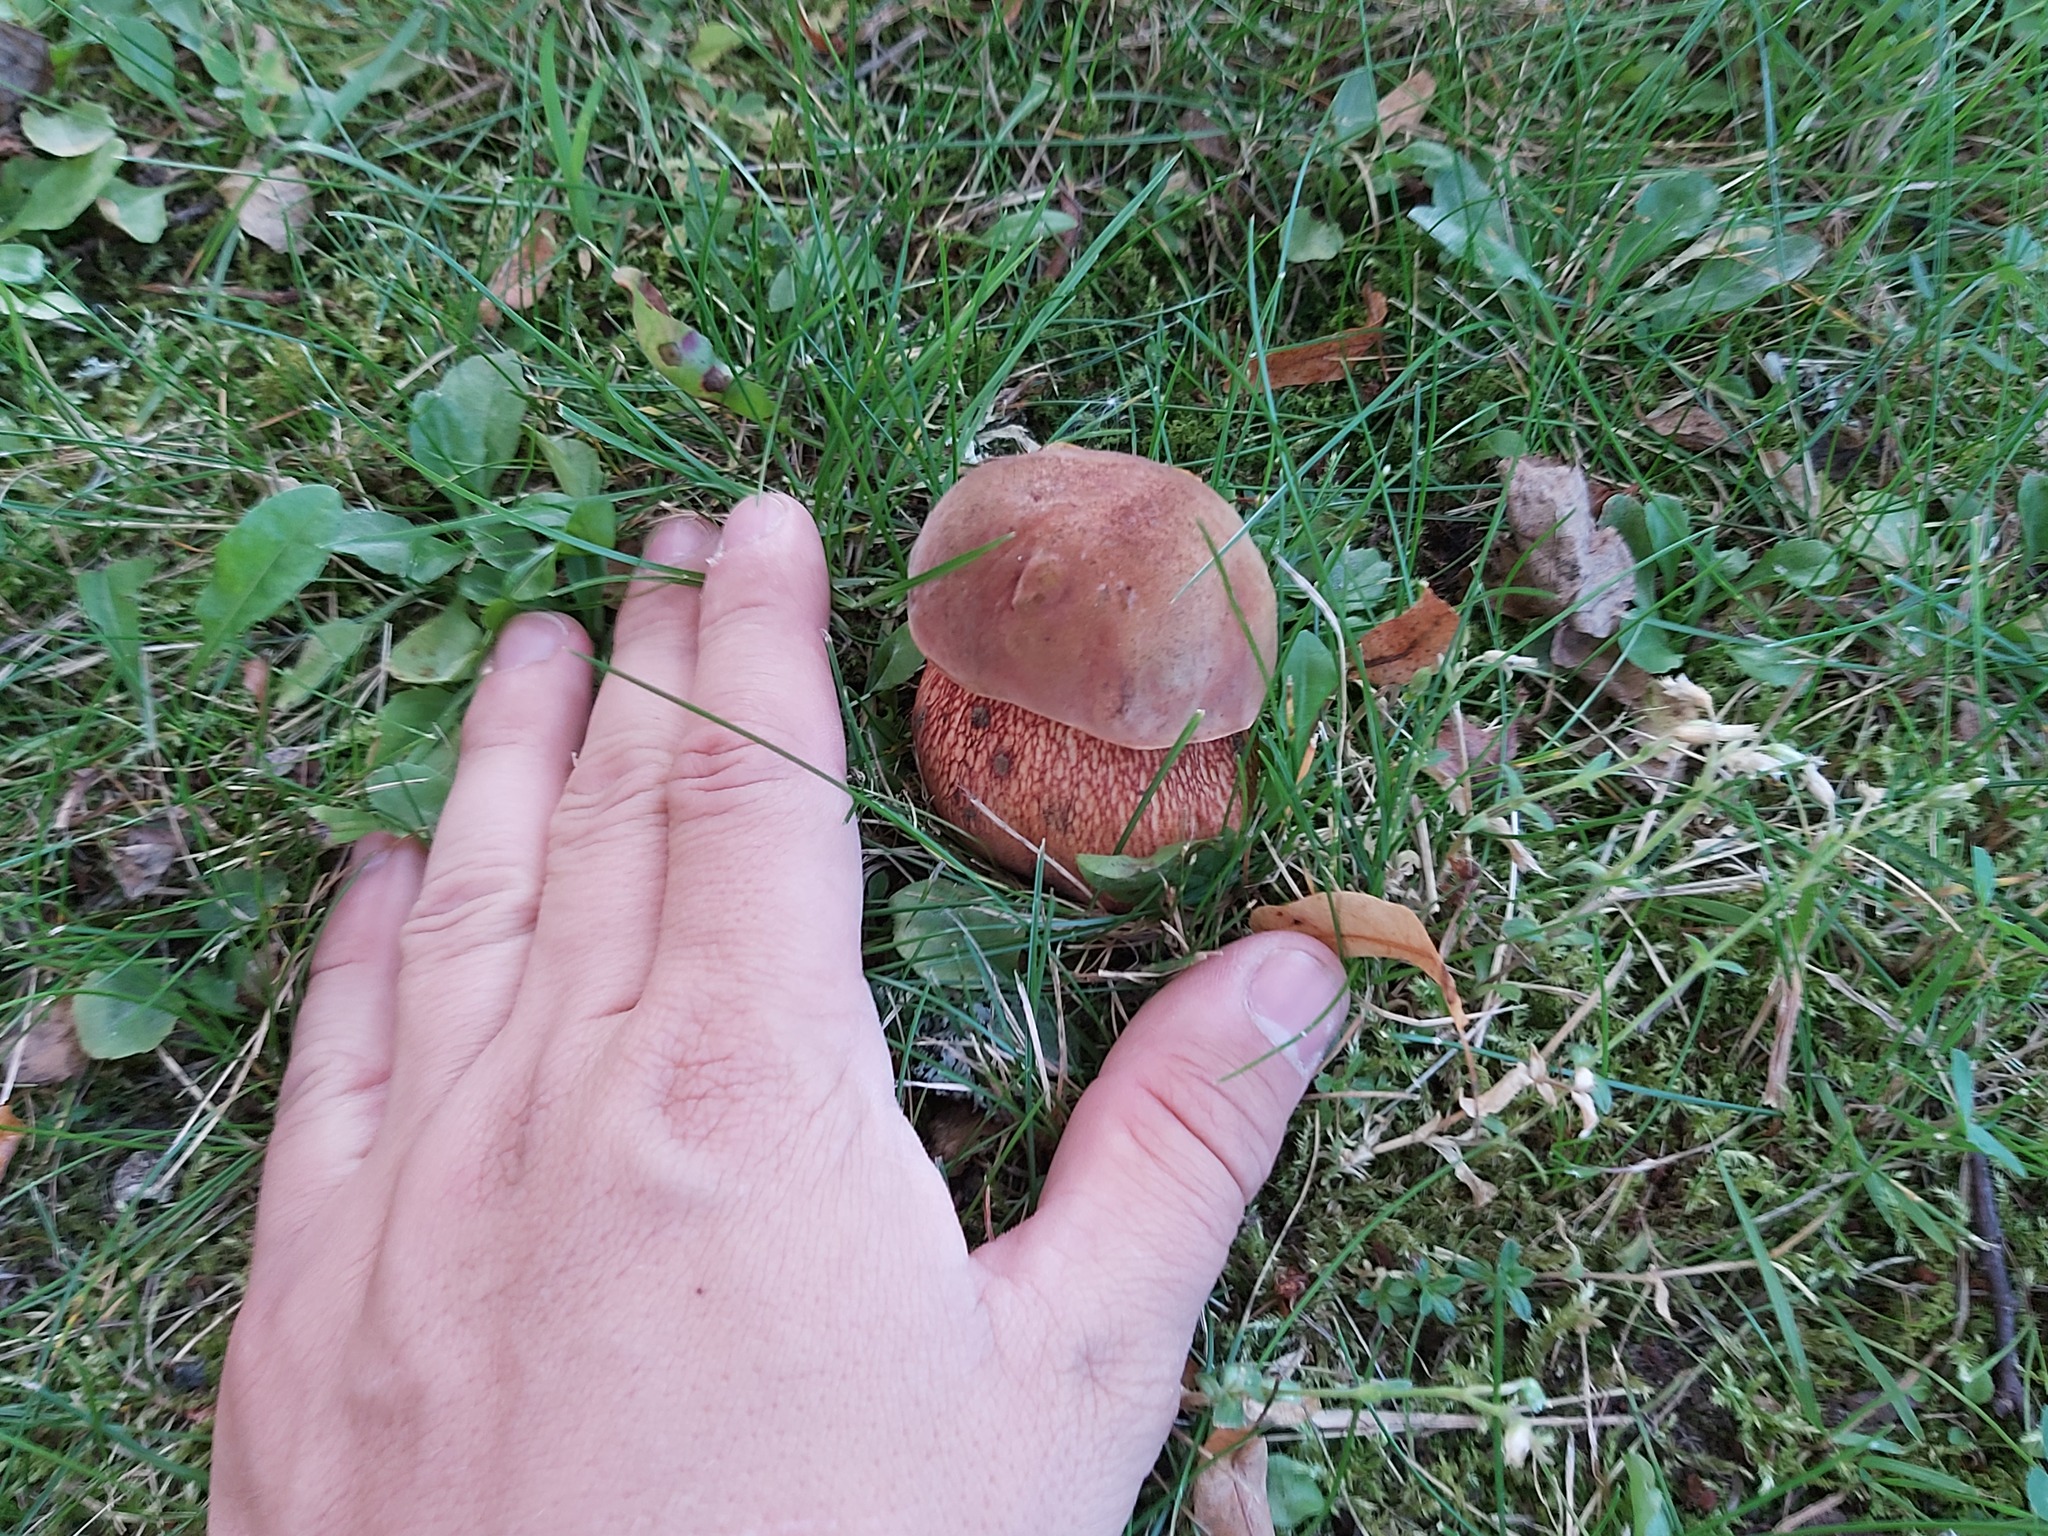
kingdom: Fungi
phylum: Basidiomycota
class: Agaricomycetes
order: Boletales
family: Boletaceae
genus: Suillellus
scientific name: Suillellus luridus
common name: Lurid bolete
